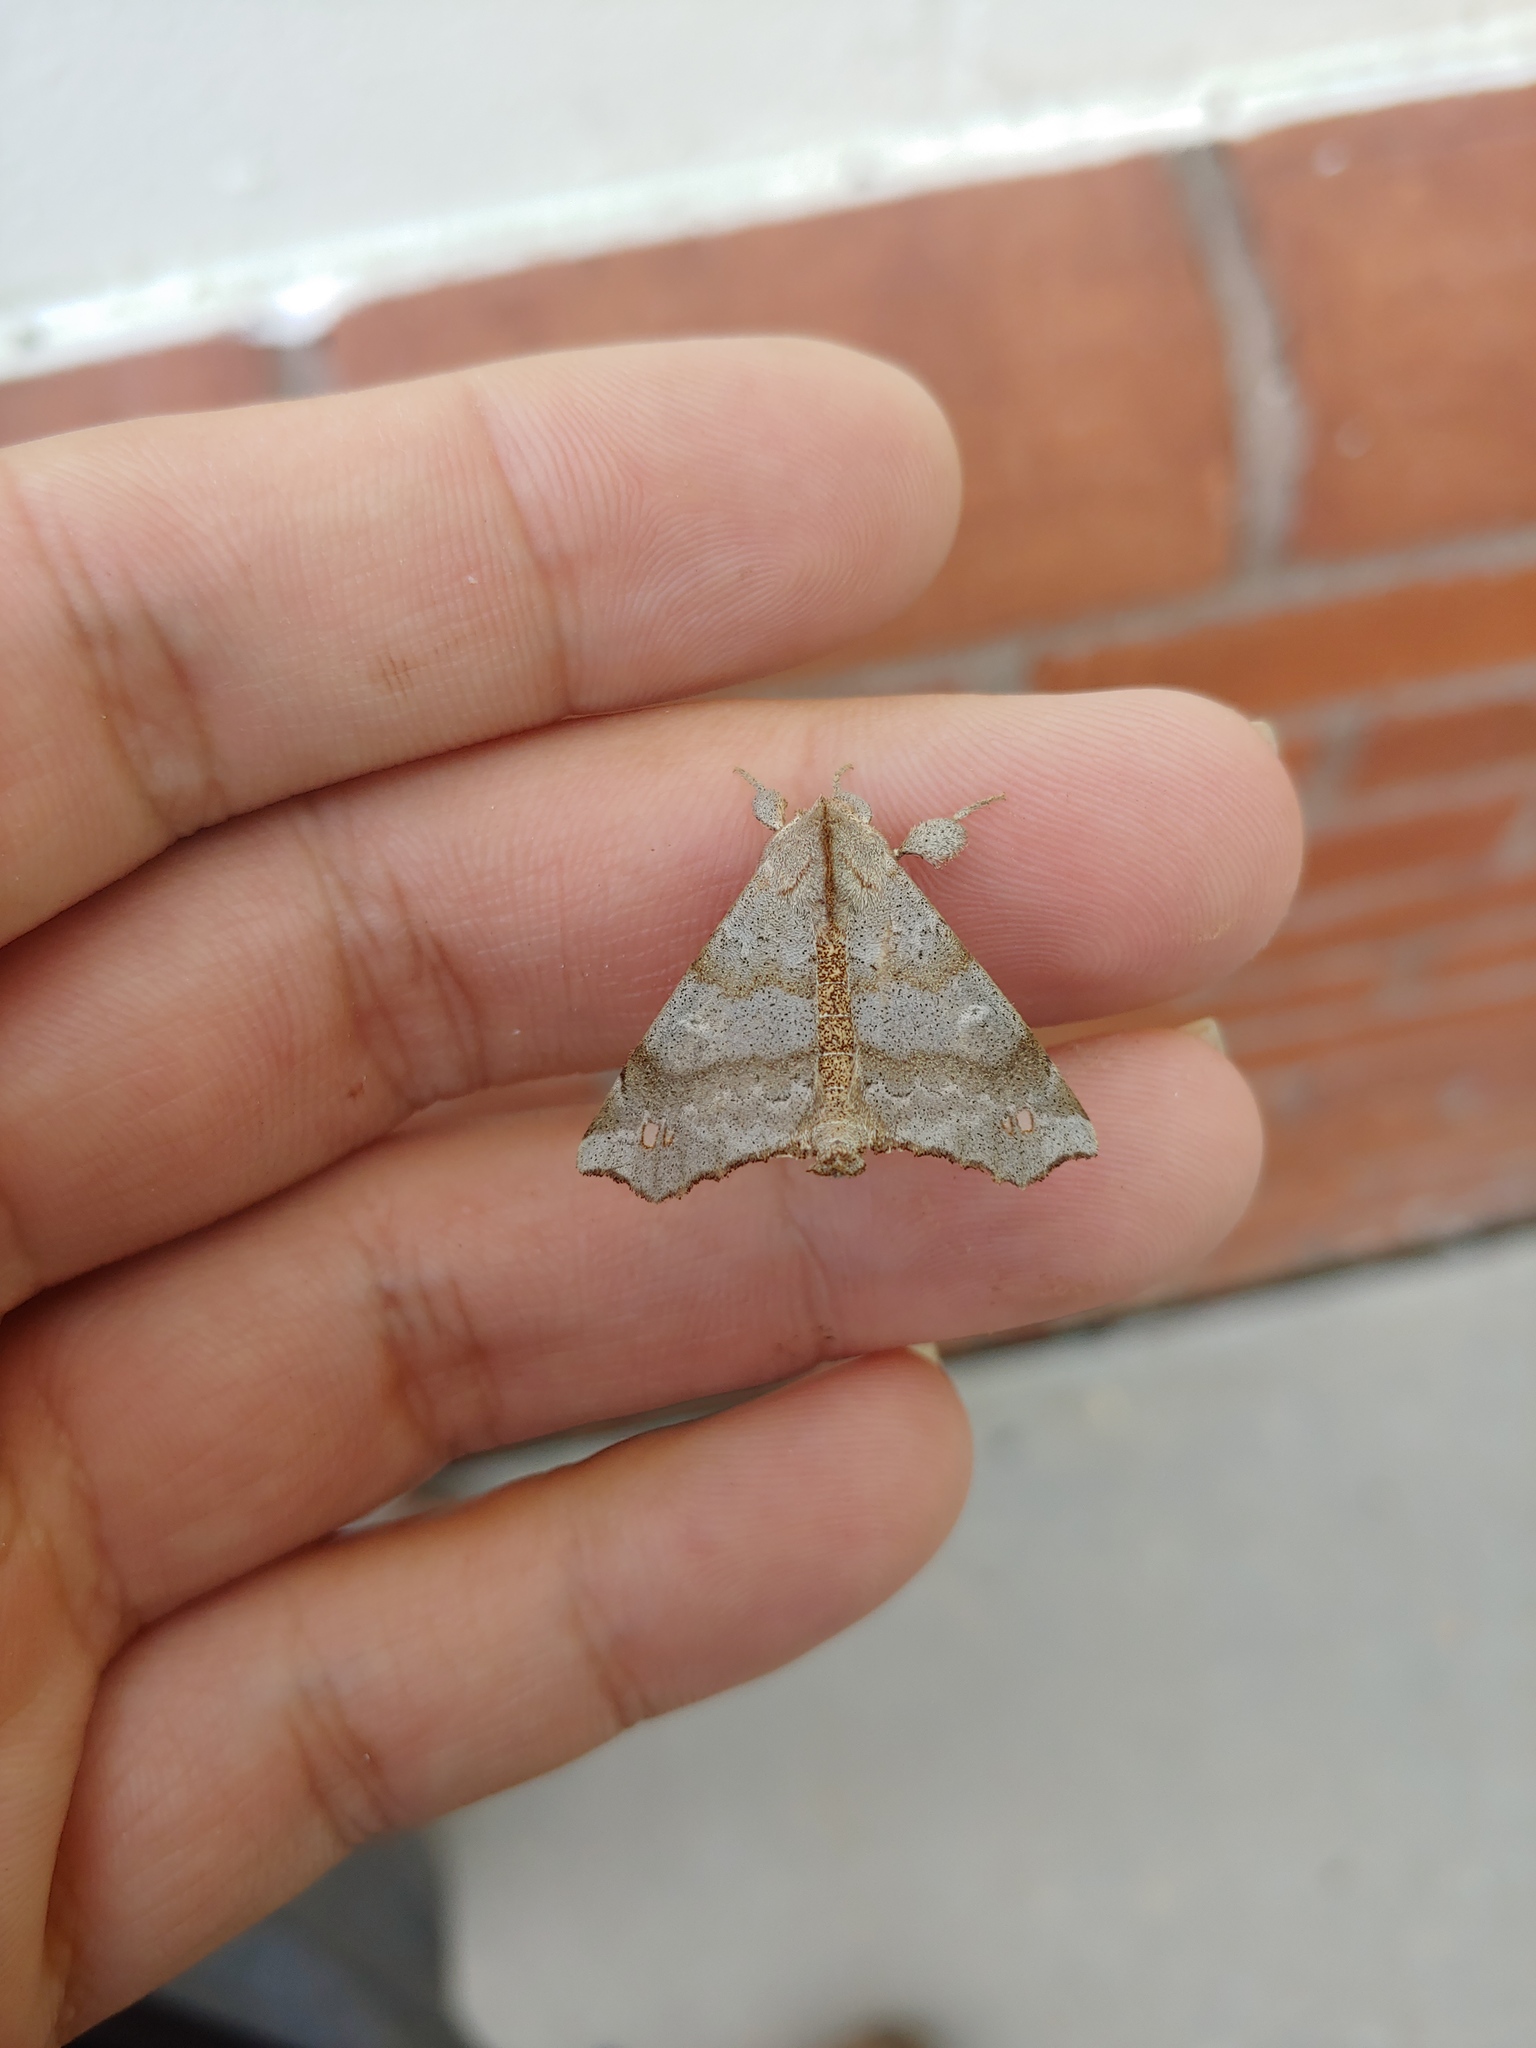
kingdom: Animalia
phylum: Arthropoda
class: Insecta
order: Lepidoptera
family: Apatelodidae
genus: Olceclostera
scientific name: Olceclostera angelica
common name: Angel moth
